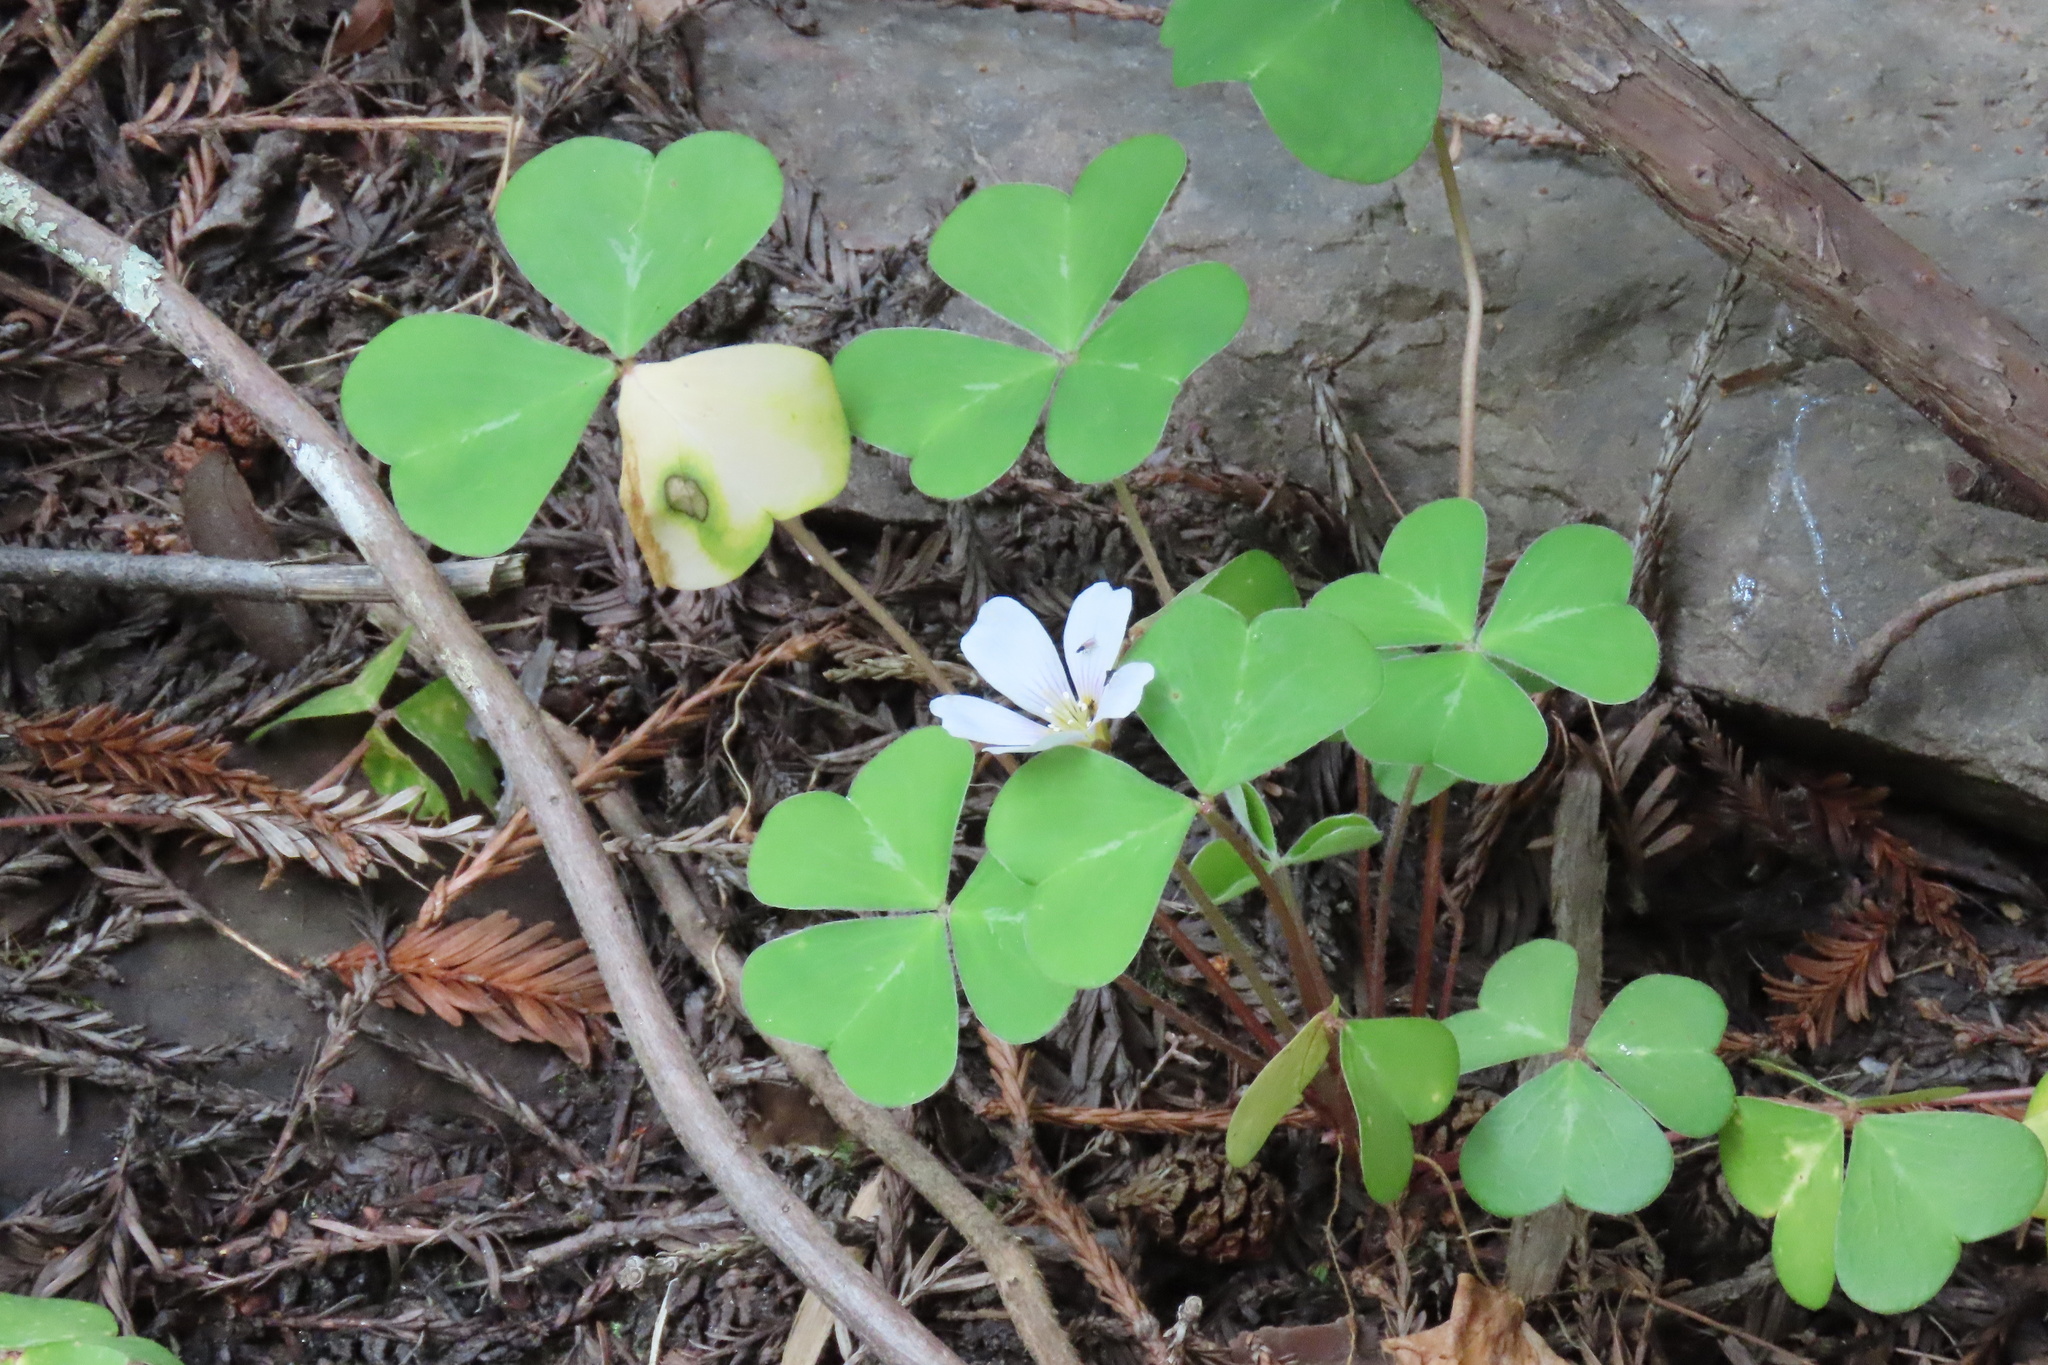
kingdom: Plantae
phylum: Tracheophyta
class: Magnoliopsida
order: Oxalidales
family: Oxalidaceae
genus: Oxalis
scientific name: Oxalis oregana
